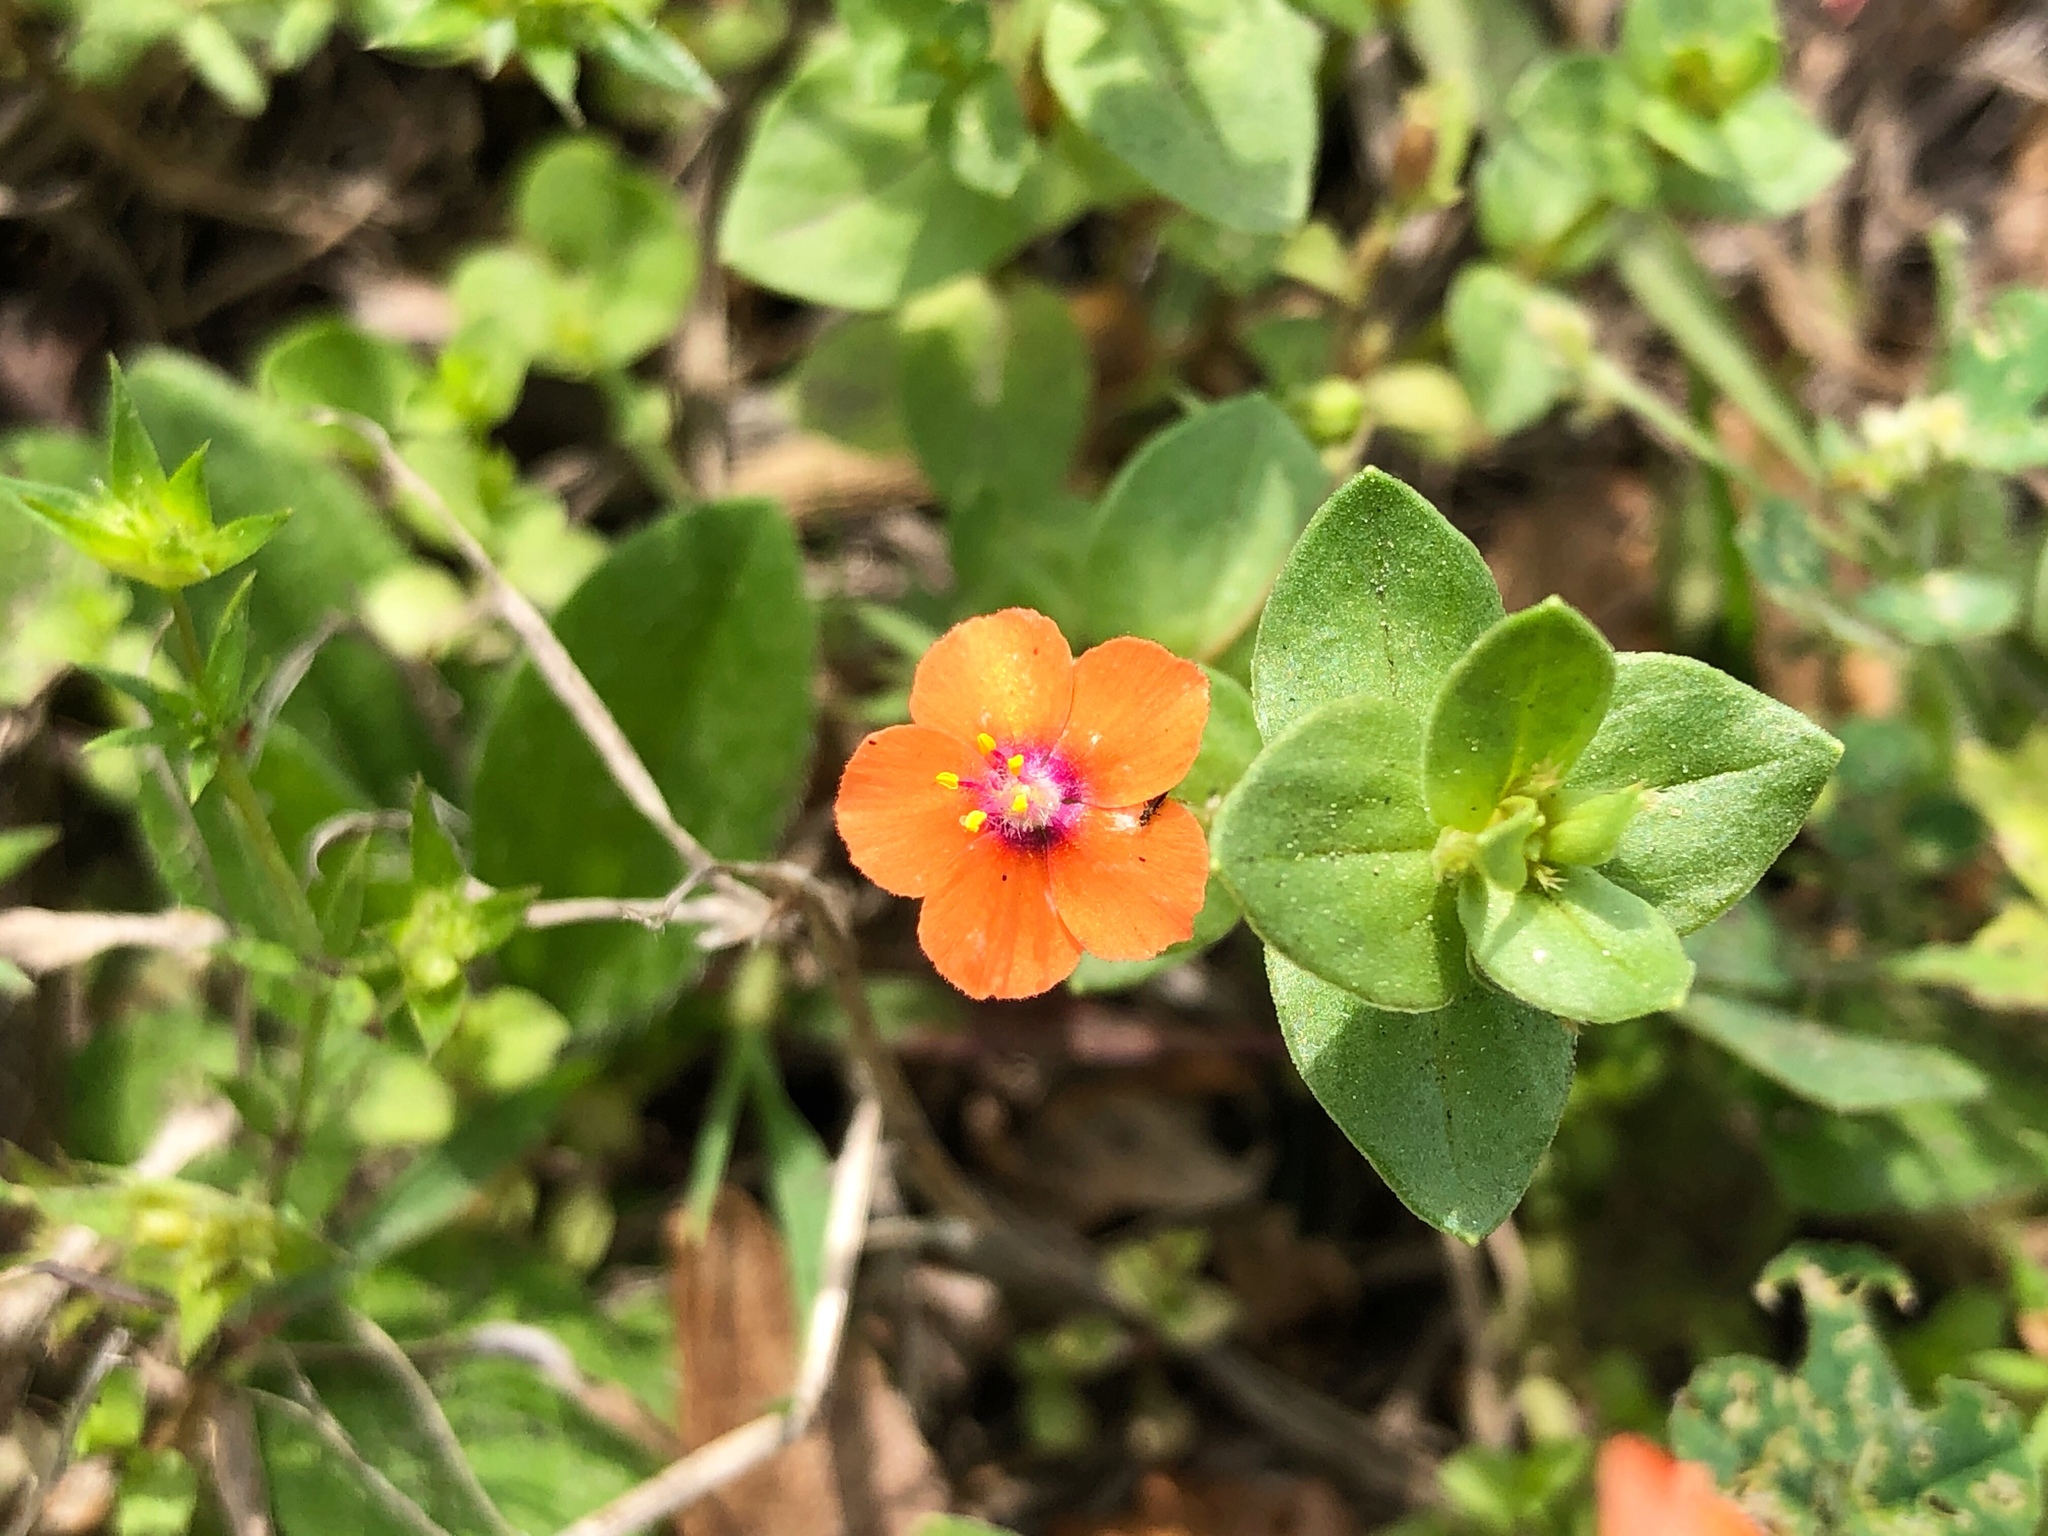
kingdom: Plantae
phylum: Tracheophyta
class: Magnoliopsida
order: Ericales
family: Primulaceae
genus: Lysimachia
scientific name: Lysimachia arvensis
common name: Scarlet pimpernel
